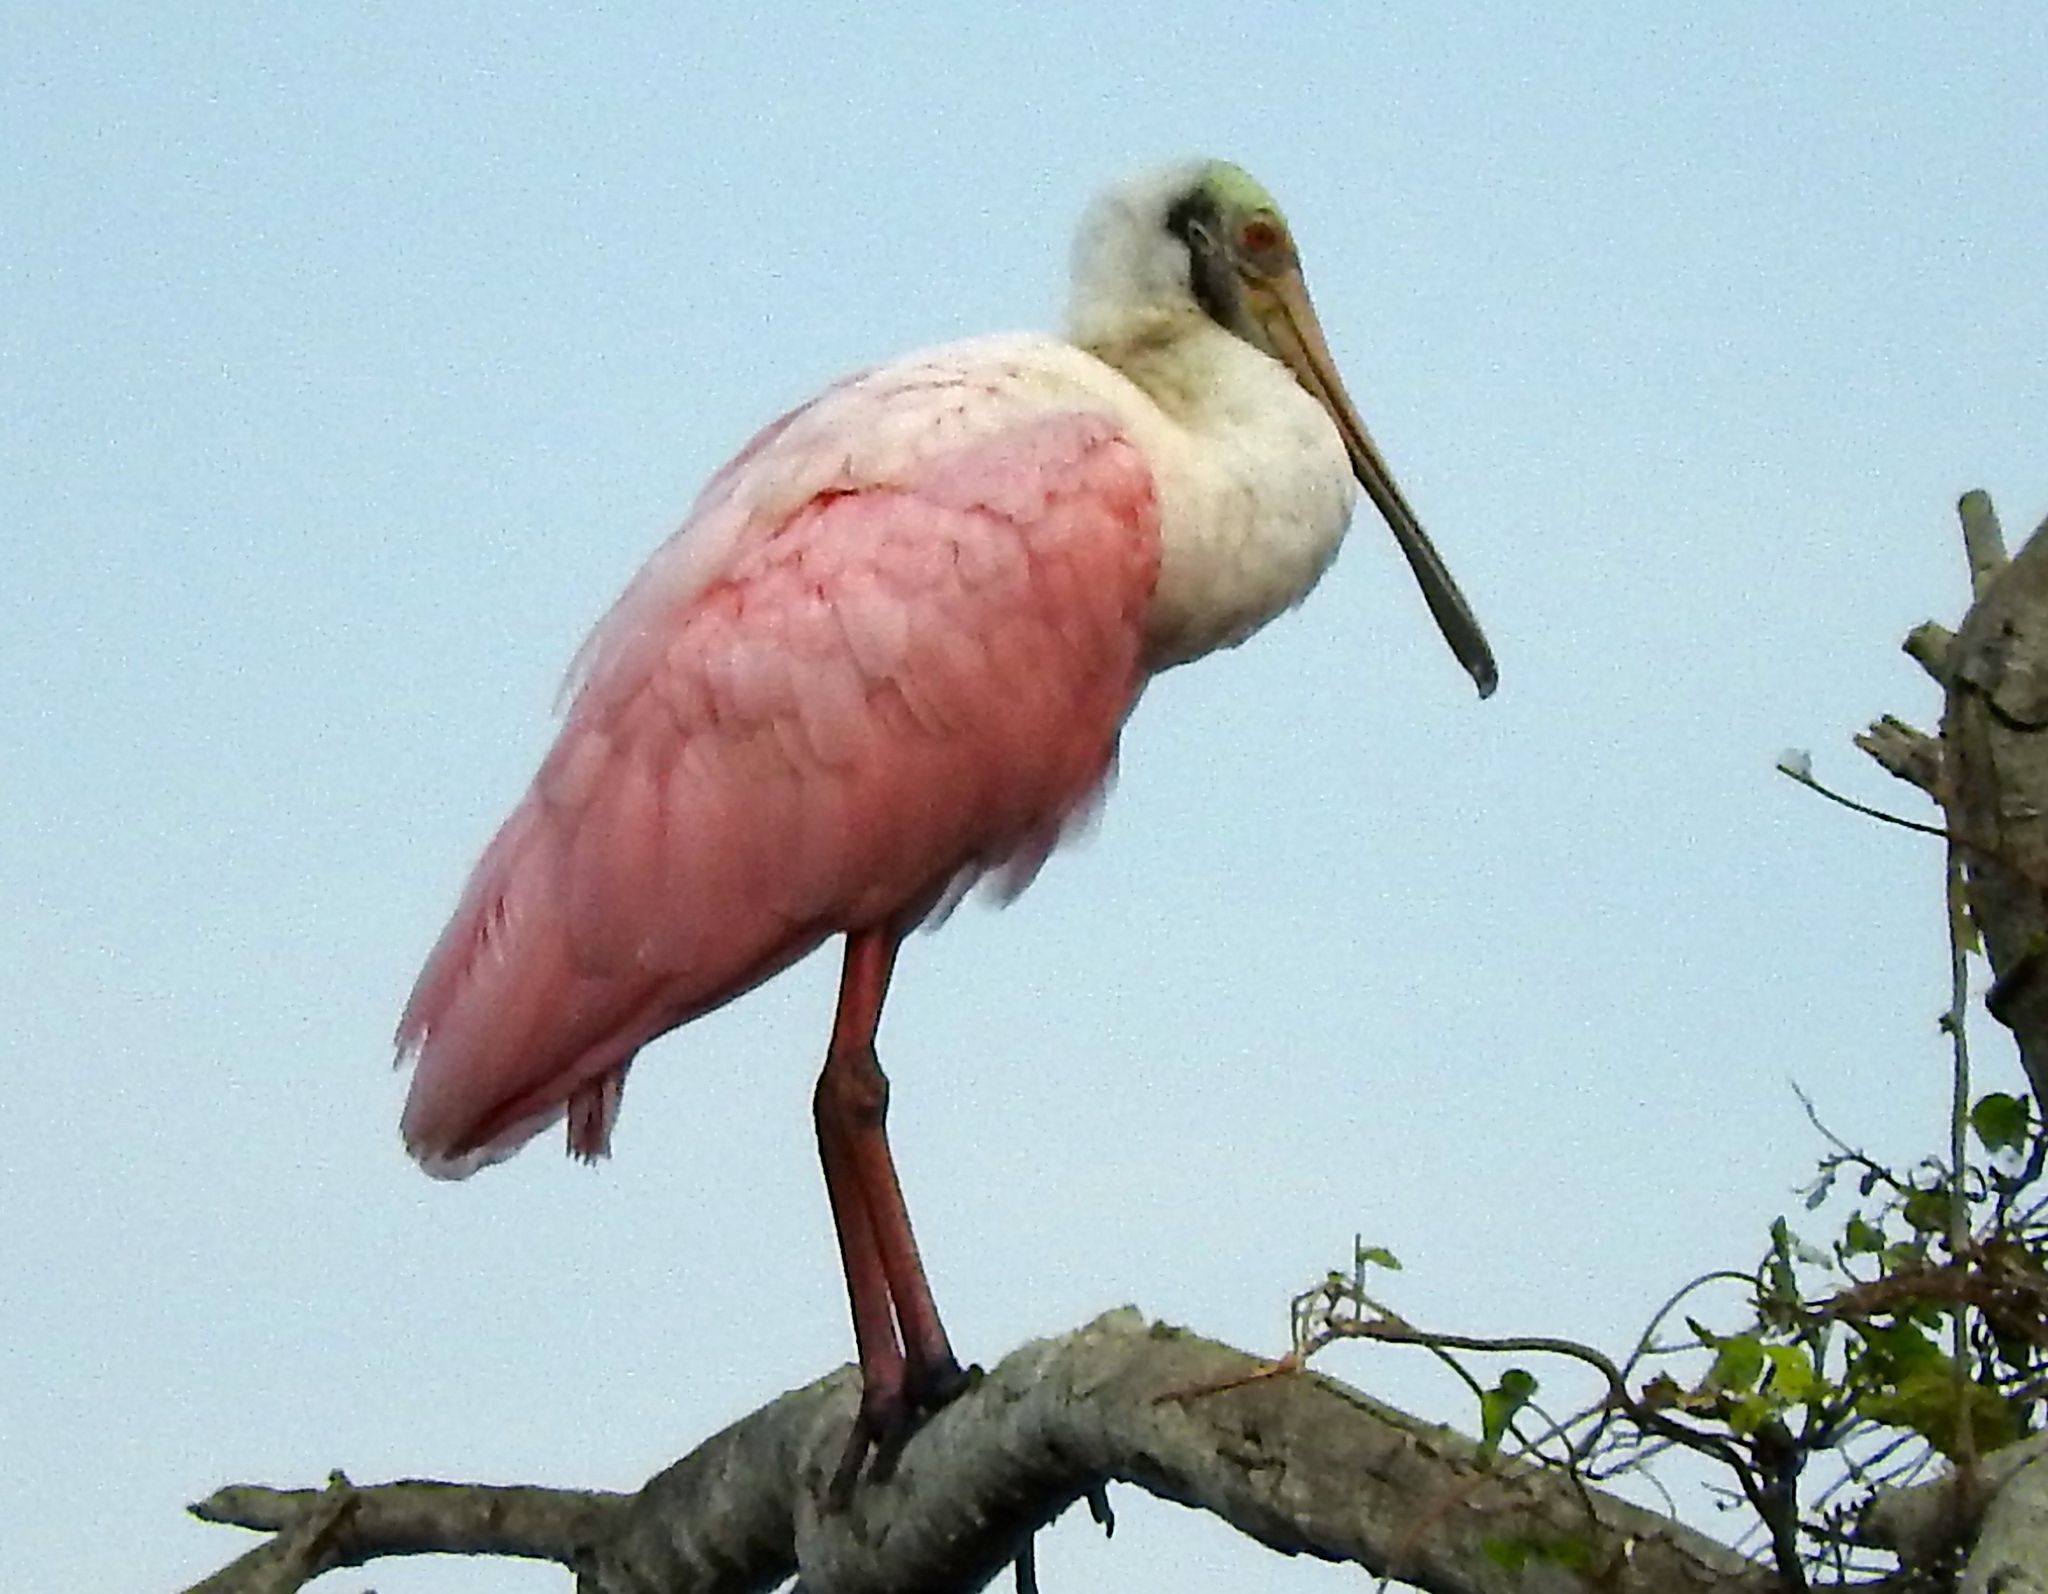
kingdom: Animalia
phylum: Chordata
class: Aves
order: Pelecaniformes
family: Threskiornithidae
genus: Platalea
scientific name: Platalea ajaja
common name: Roseate spoonbill
